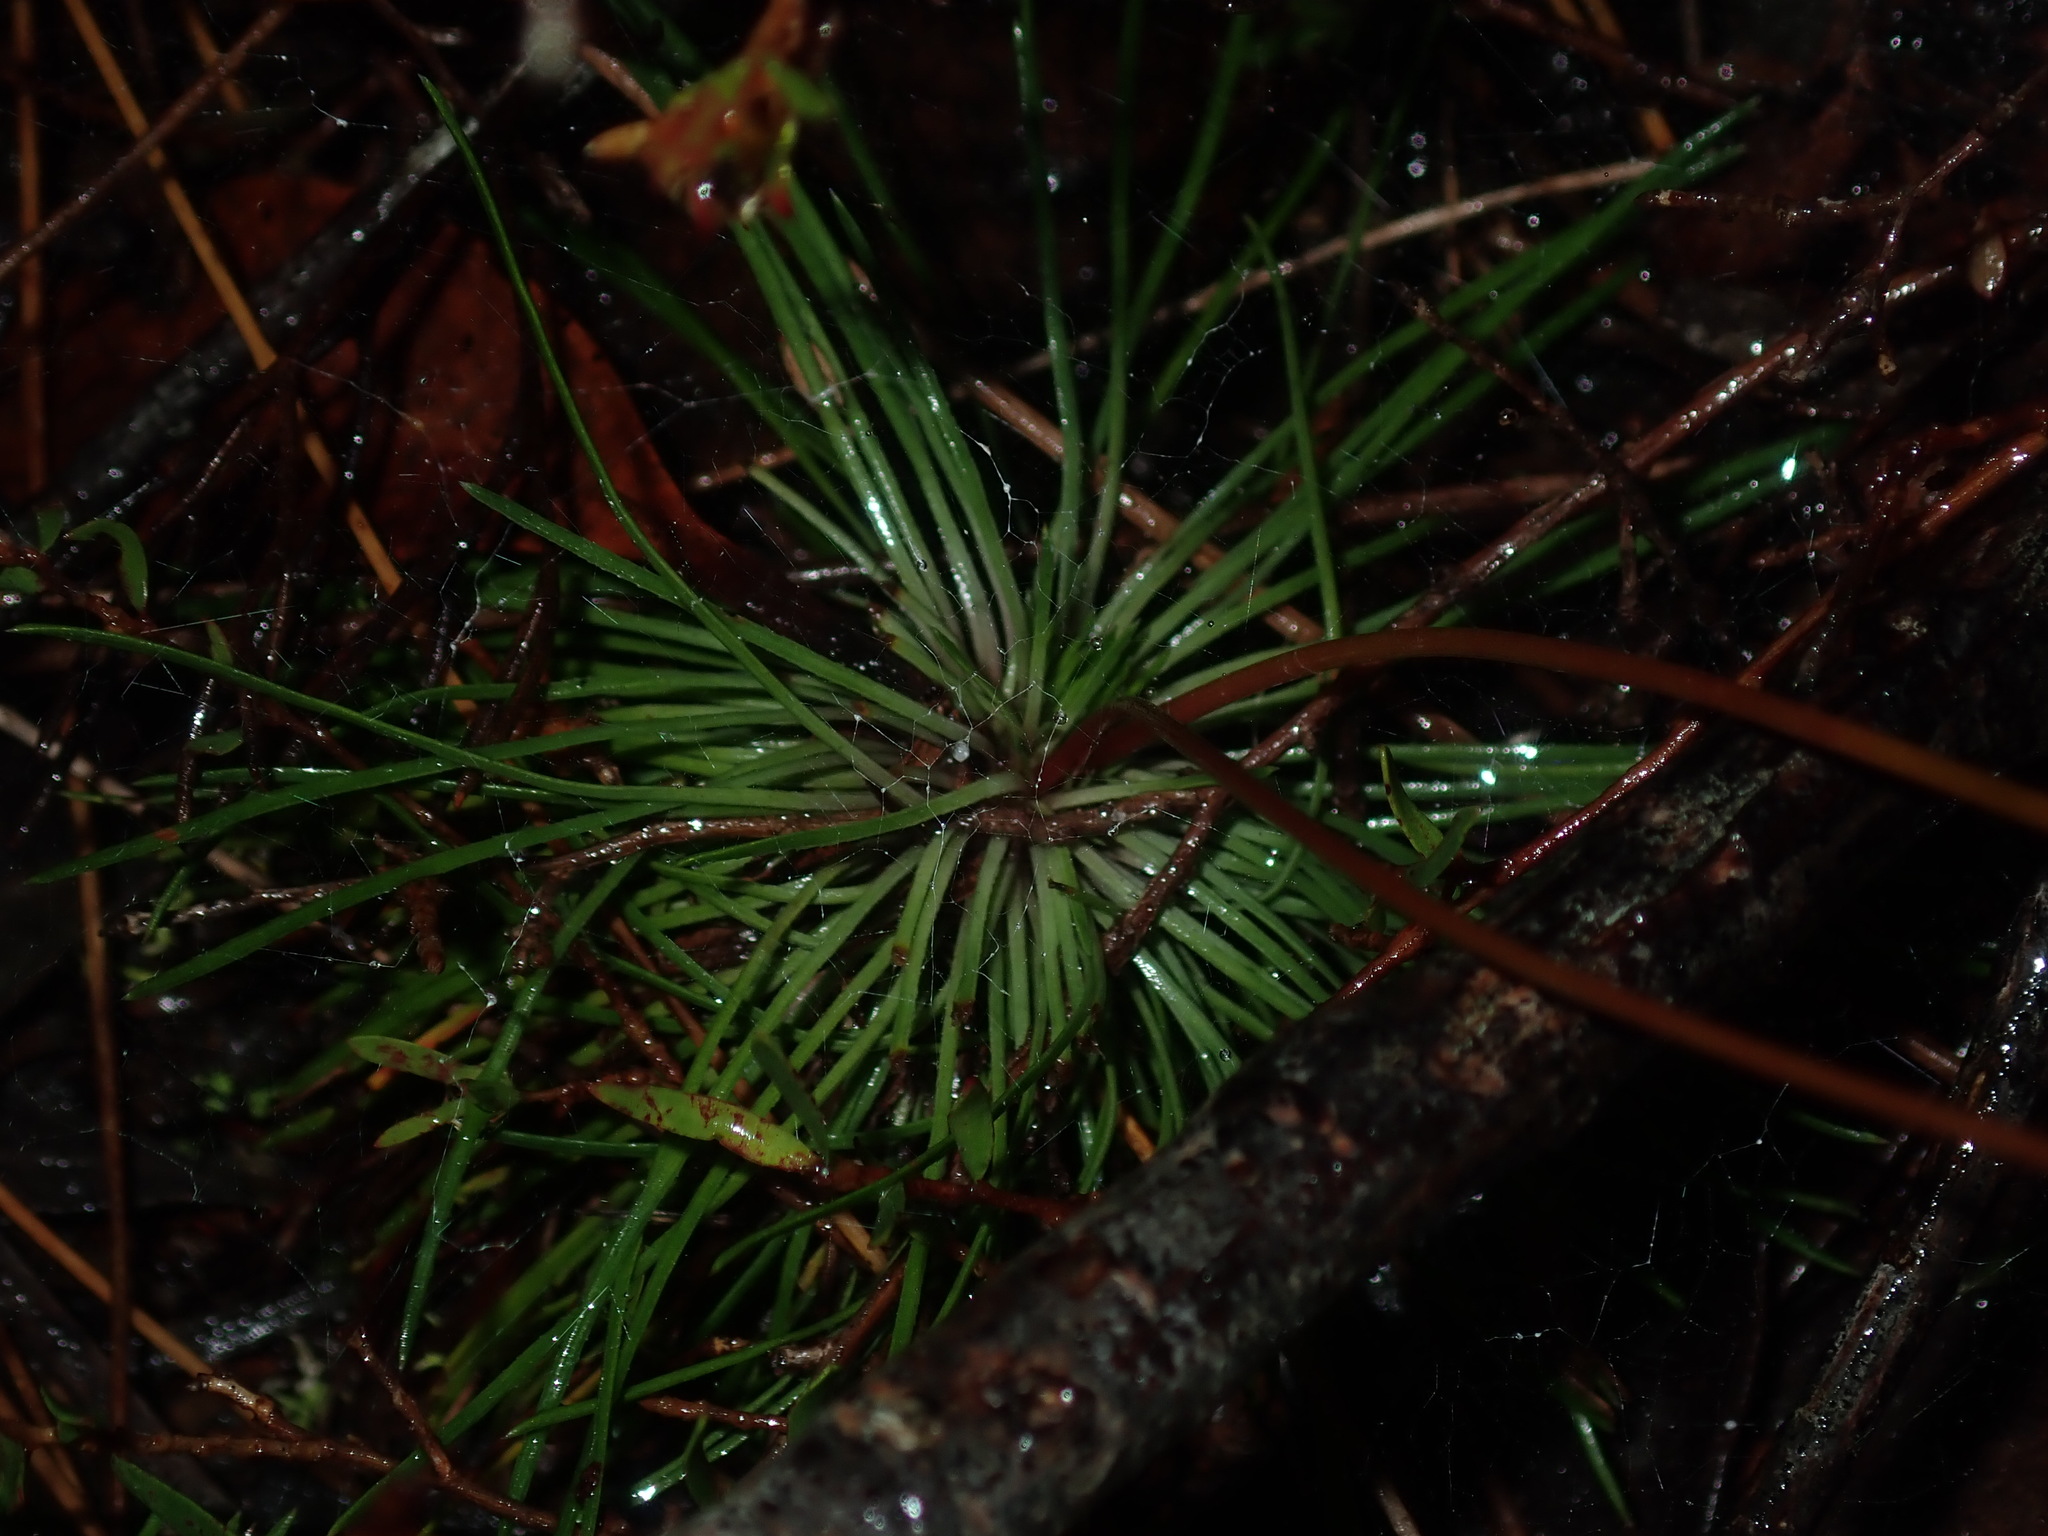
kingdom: Plantae
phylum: Tracheophyta
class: Magnoliopsida
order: Asterales
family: Stylidiaceae
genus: Stylidium
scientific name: Stylidium lineare
